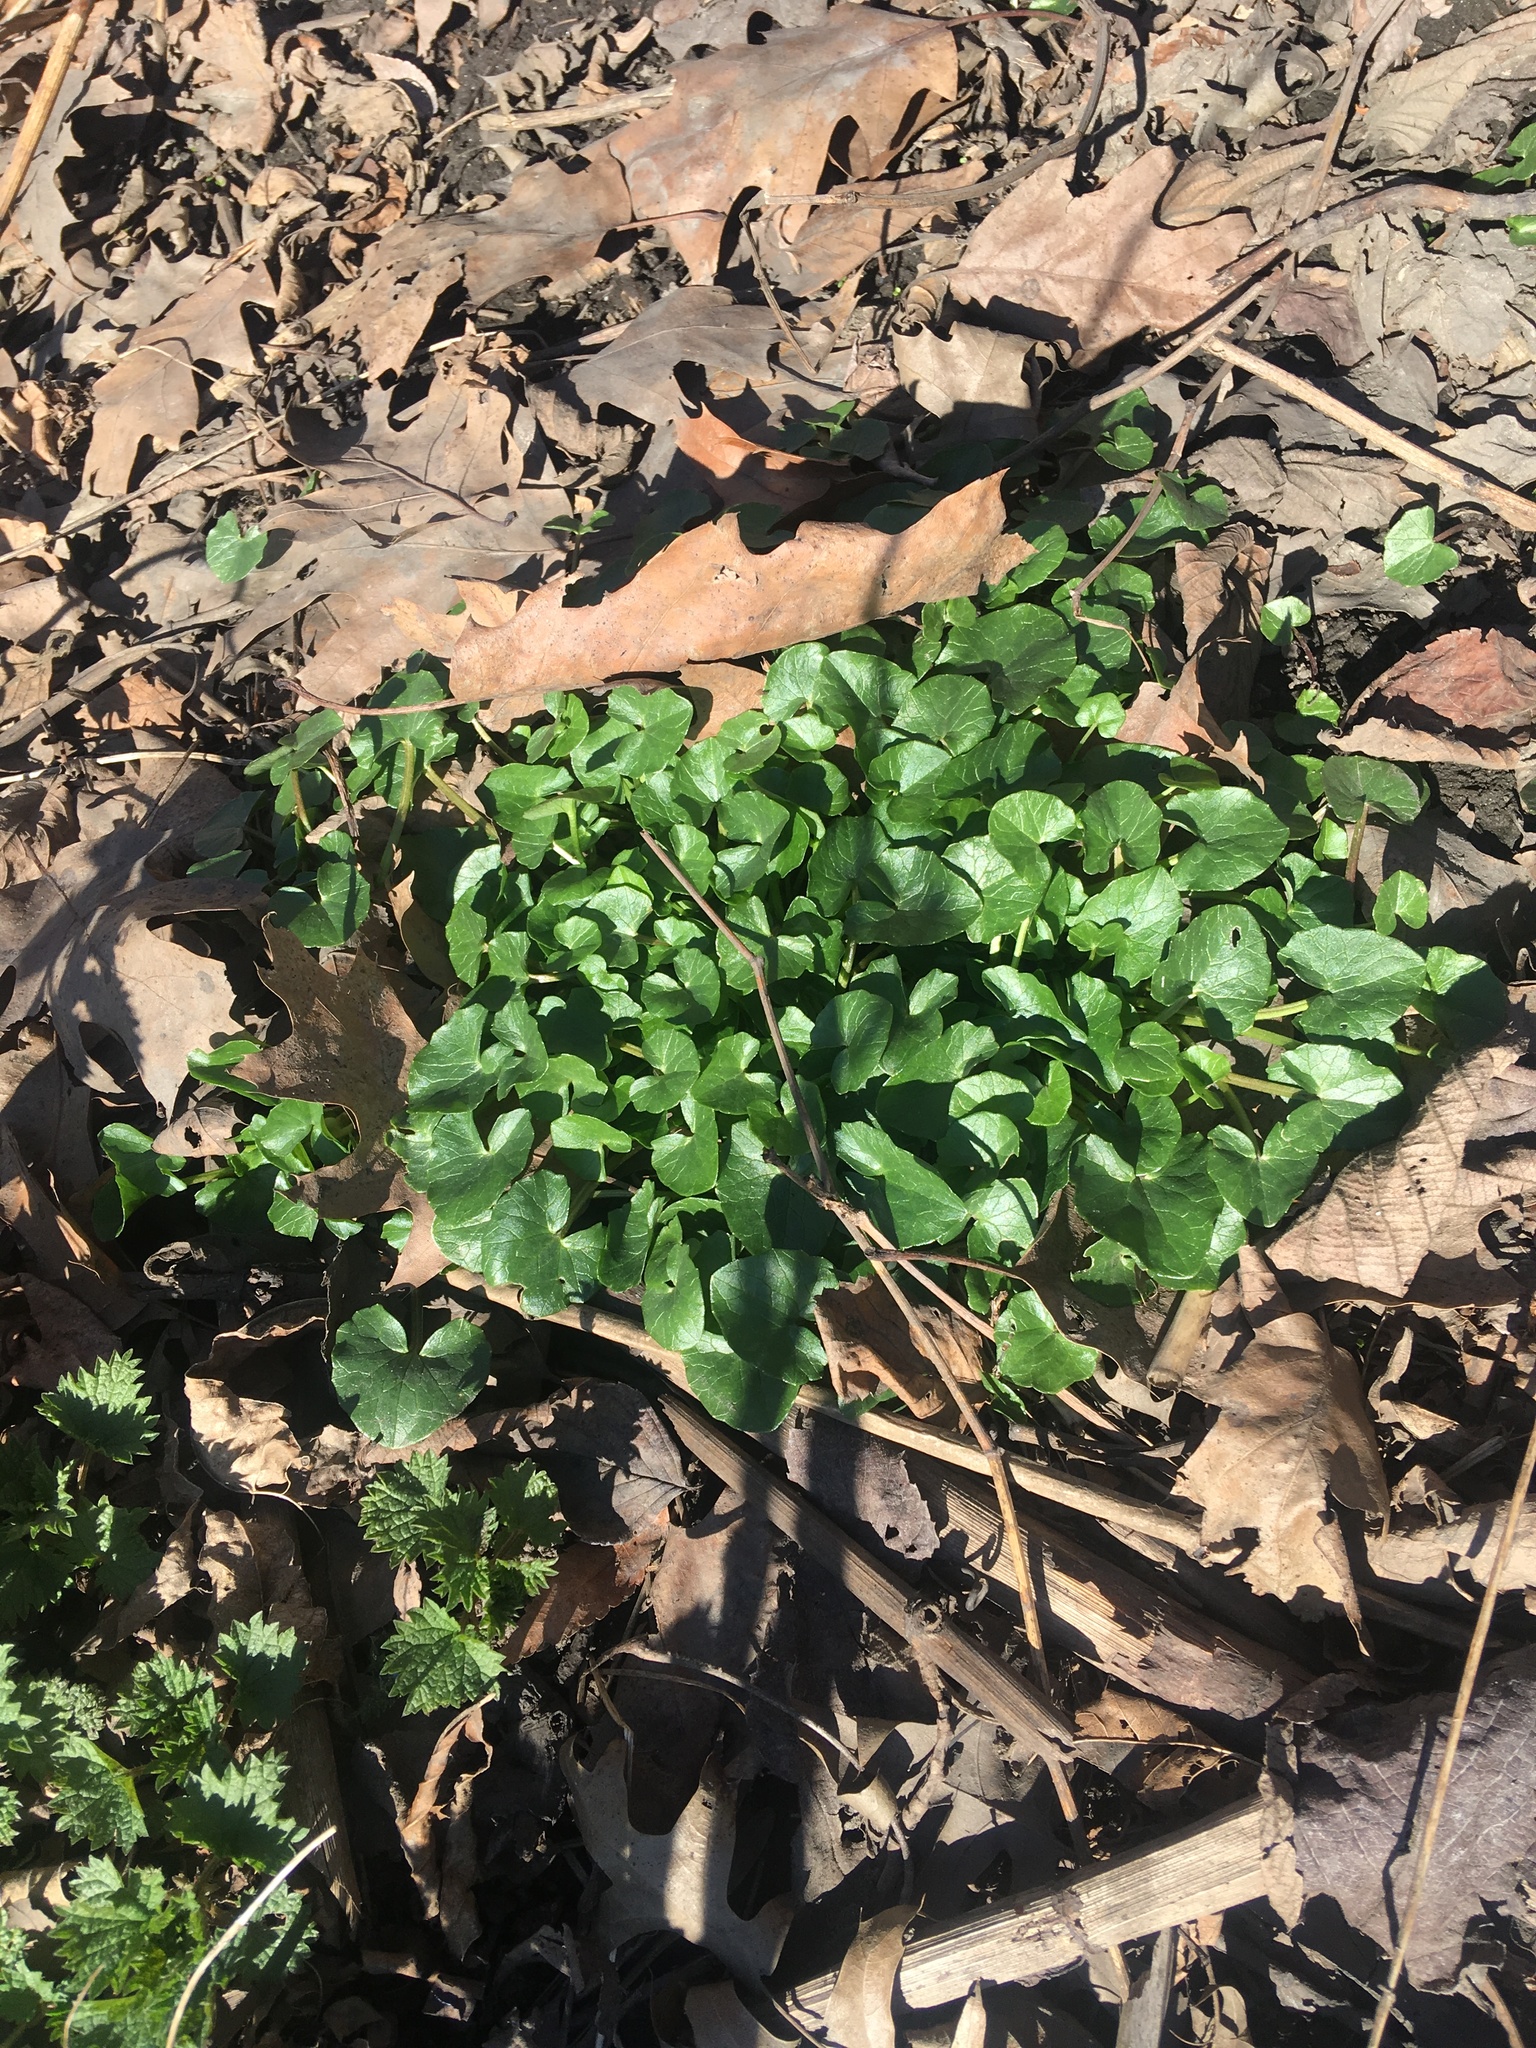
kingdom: Plantae
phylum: Tracheophyta
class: Magnoliopsida
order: Ranunculales
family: Ranunculaceae
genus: Ficaria
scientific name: Ficaria verna
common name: Lesser celandine
